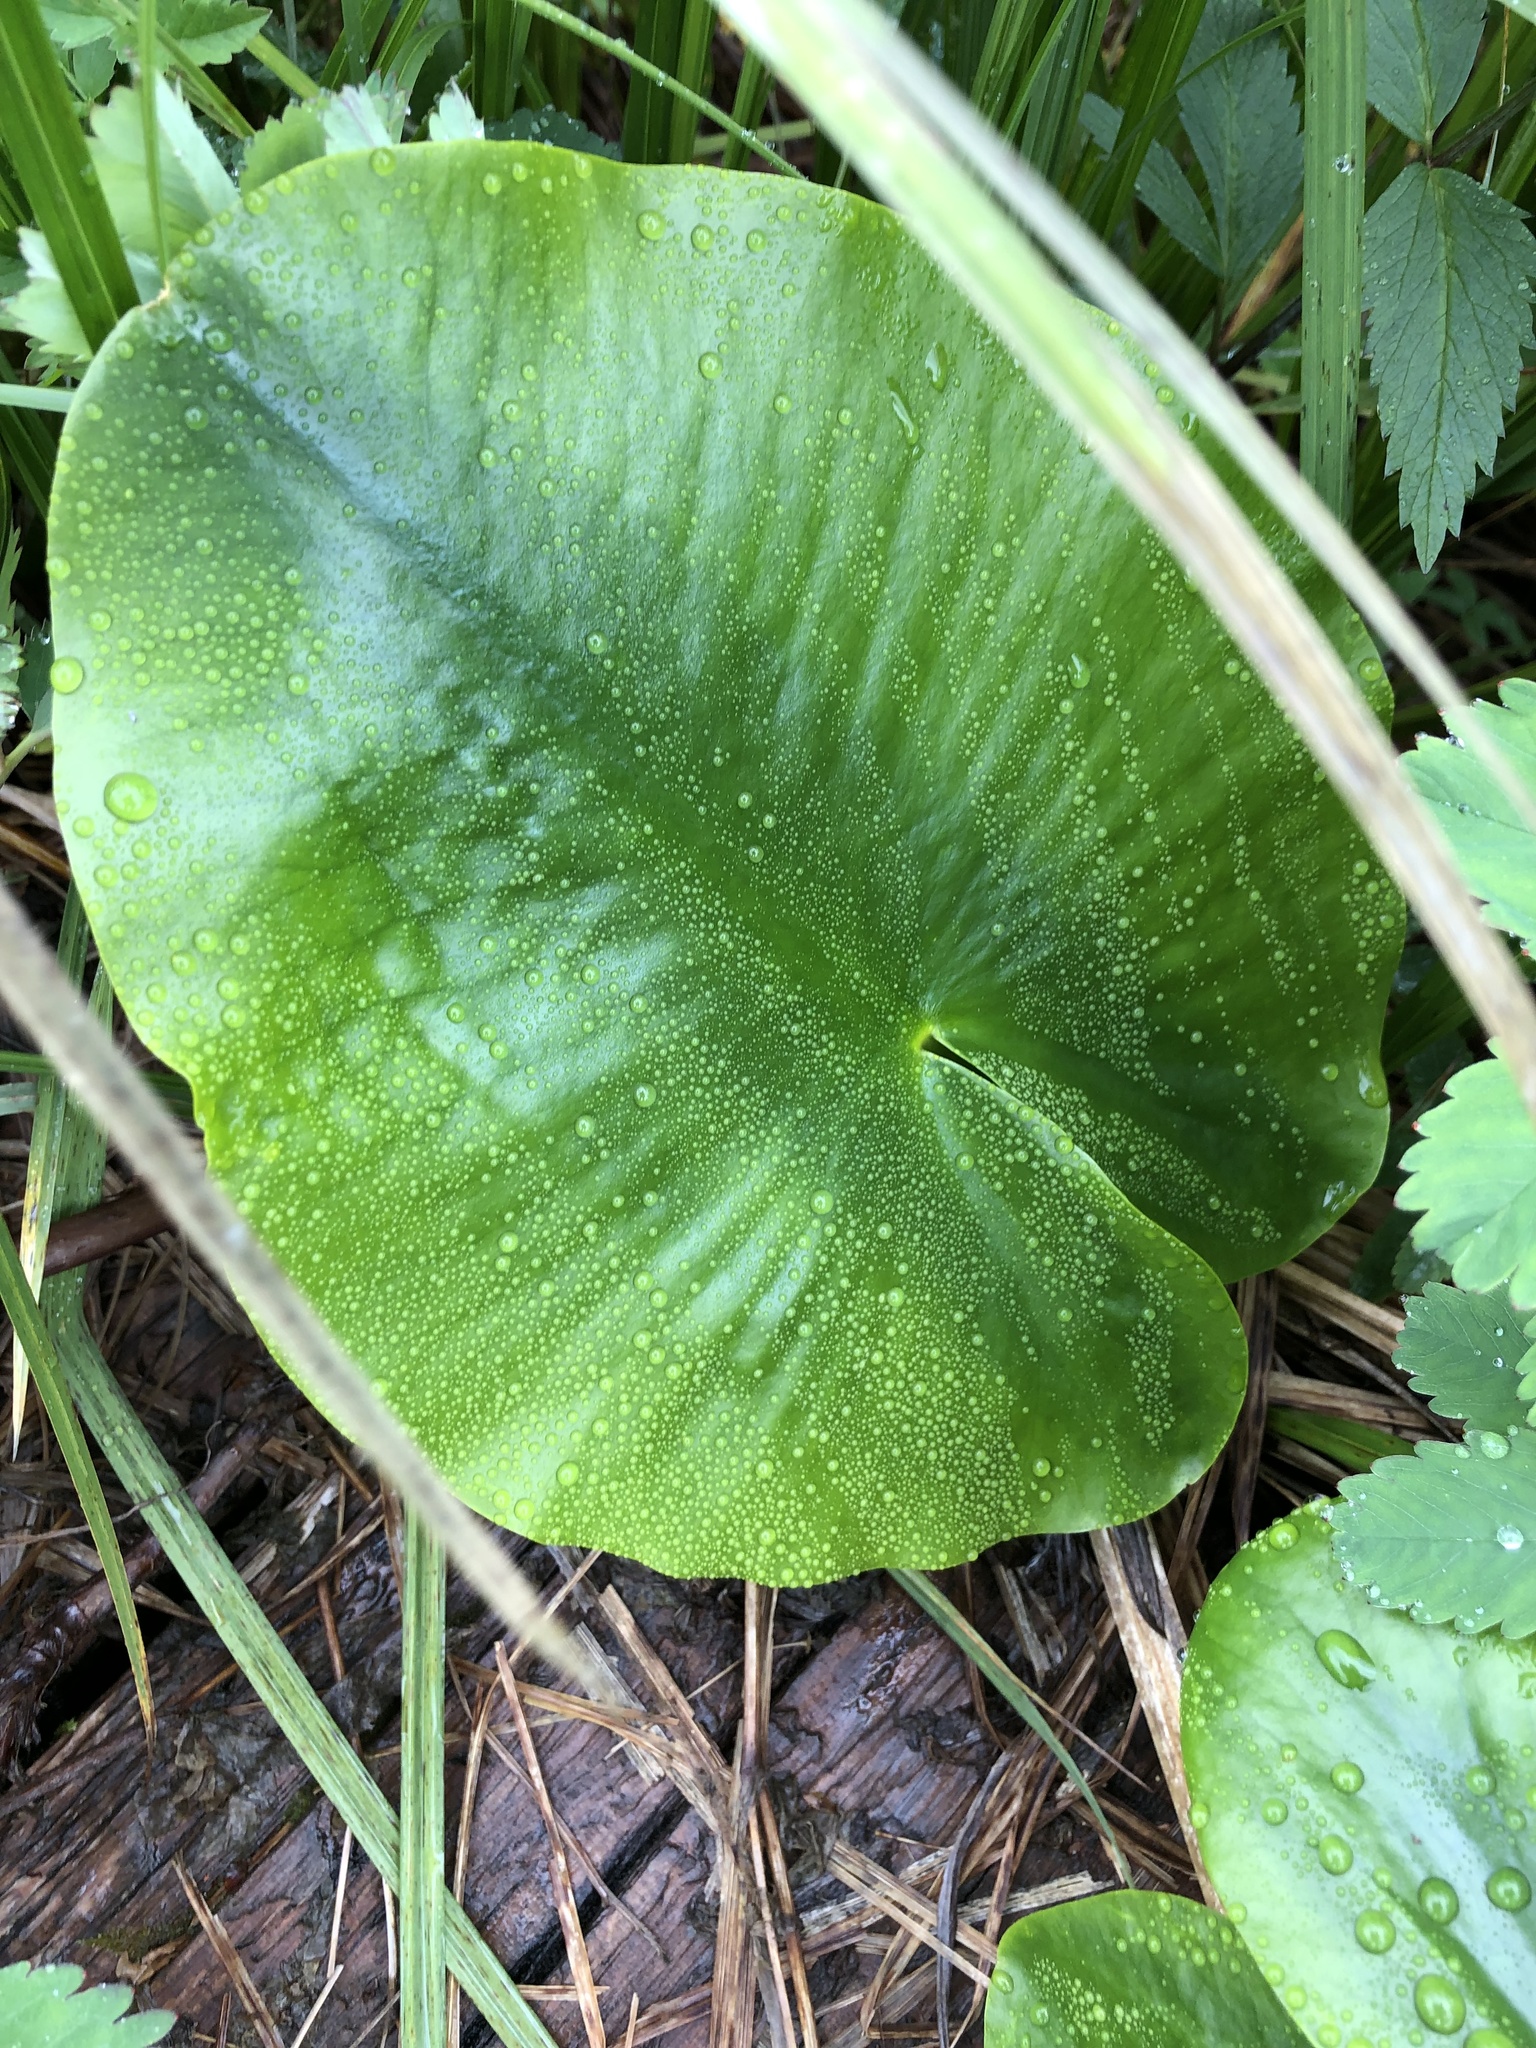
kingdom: Plantae
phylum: Tracheophyta
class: Magnoliopsida
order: Nymphaeales
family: Nymphaeaceae
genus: Nuphar
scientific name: Nuphar polysepala
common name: Rocky mountain cow-lily
